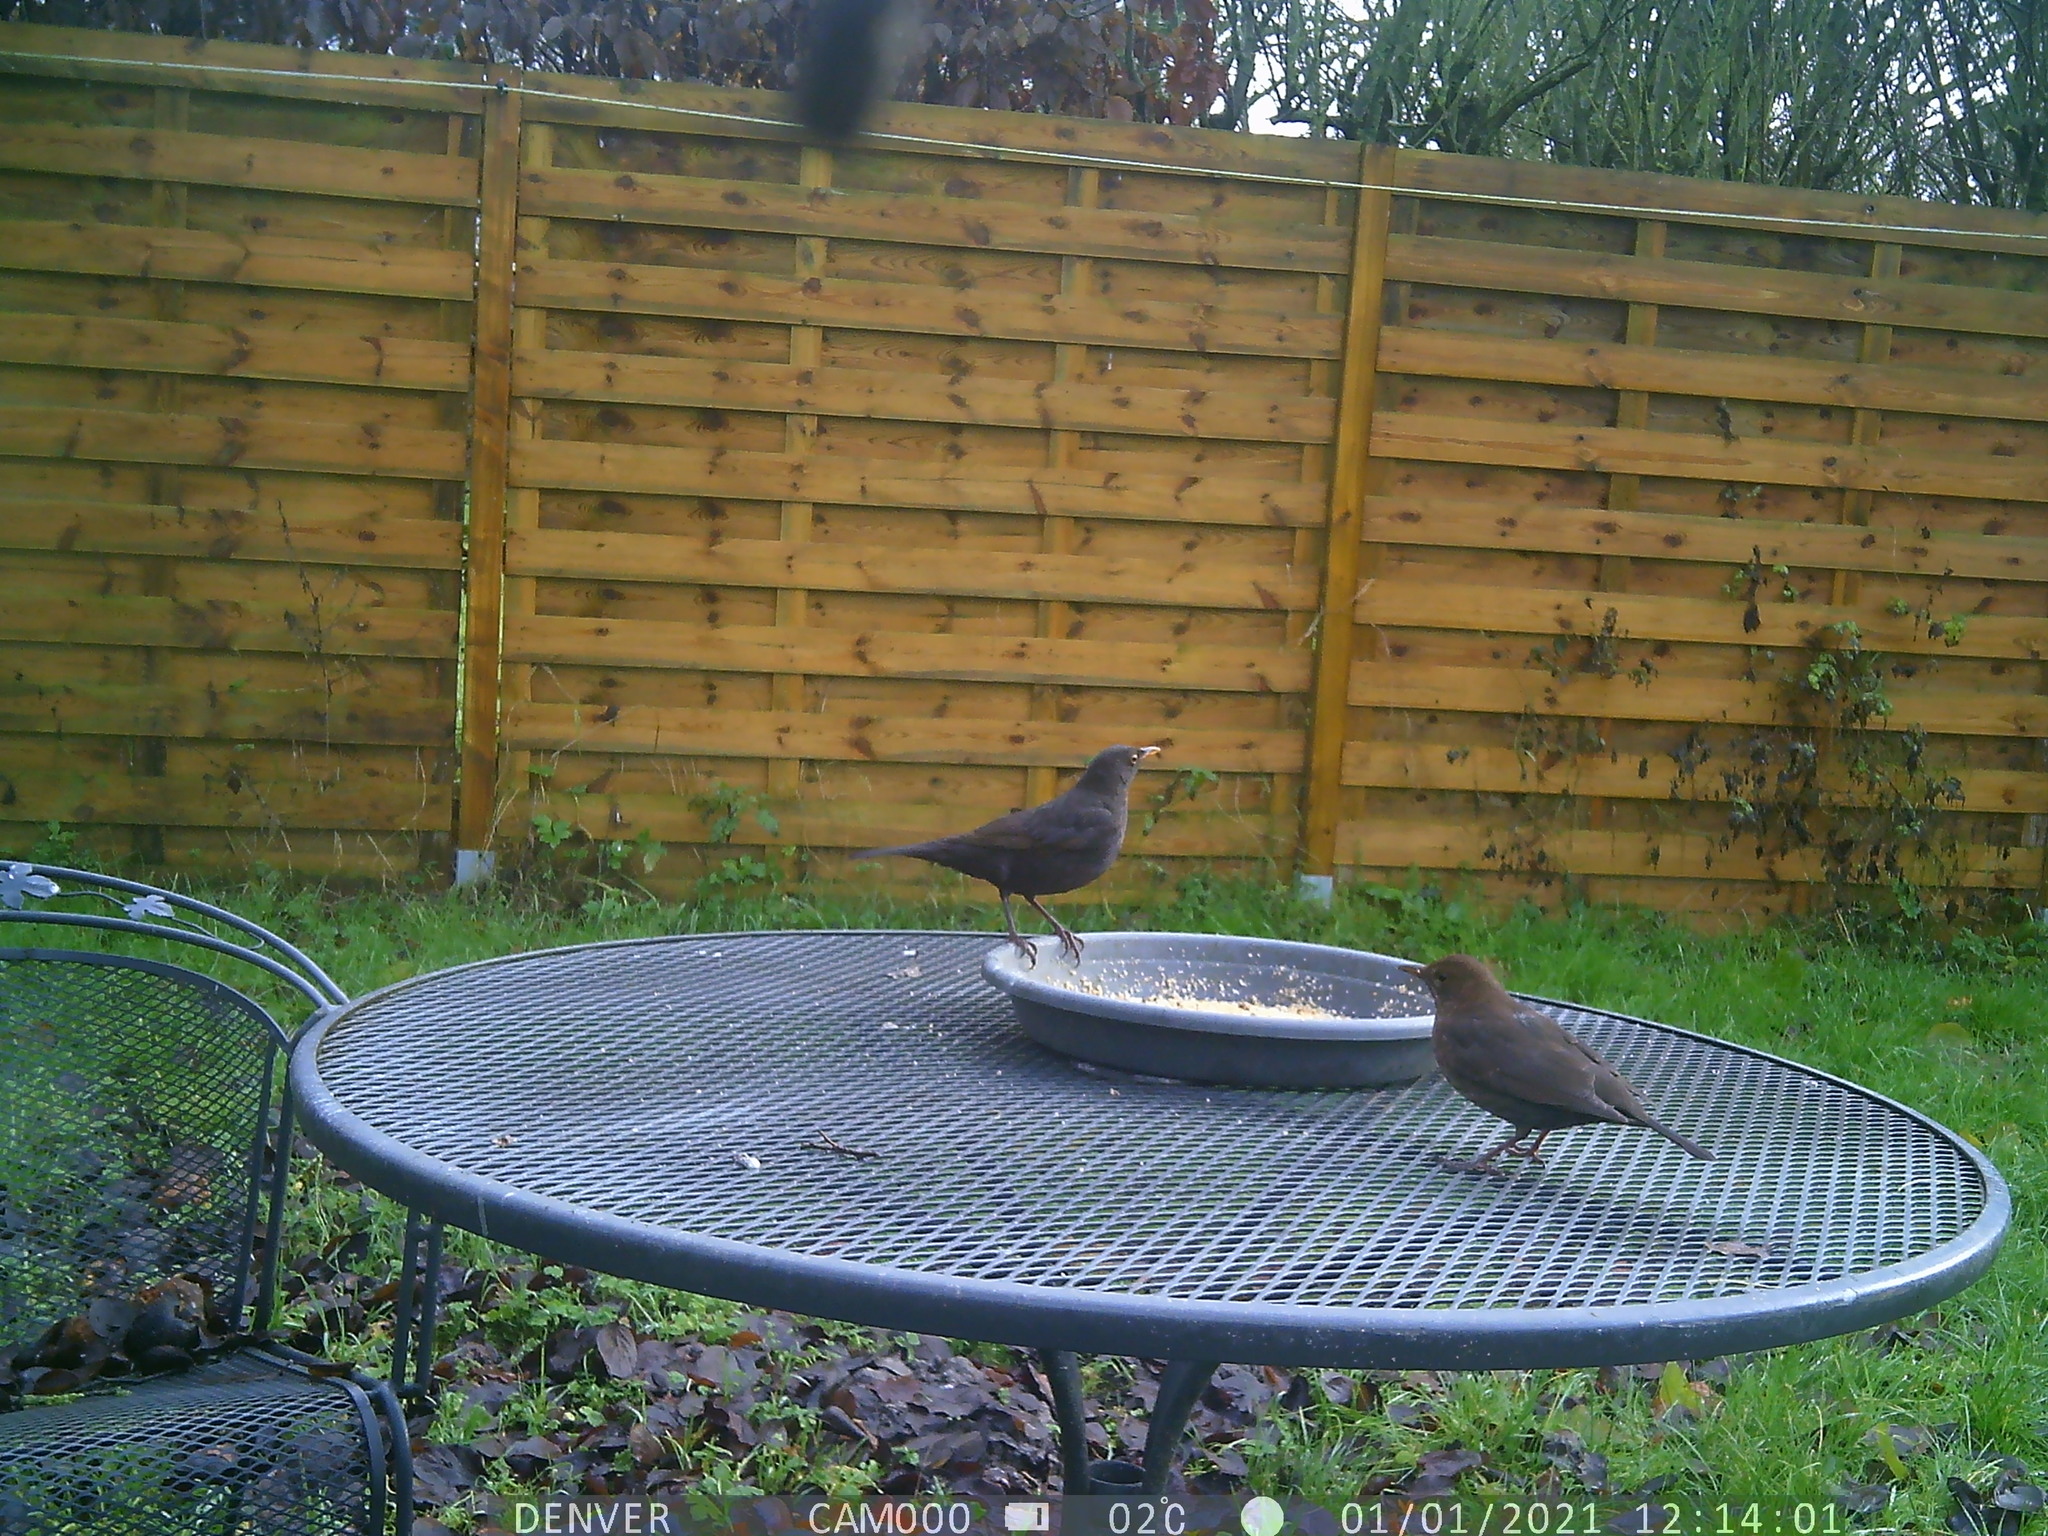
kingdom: Animalia
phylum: Chordata
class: Aves
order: Passeriformes
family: Turdidae
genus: Turdus
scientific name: Turdus merula
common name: Common blackbird
